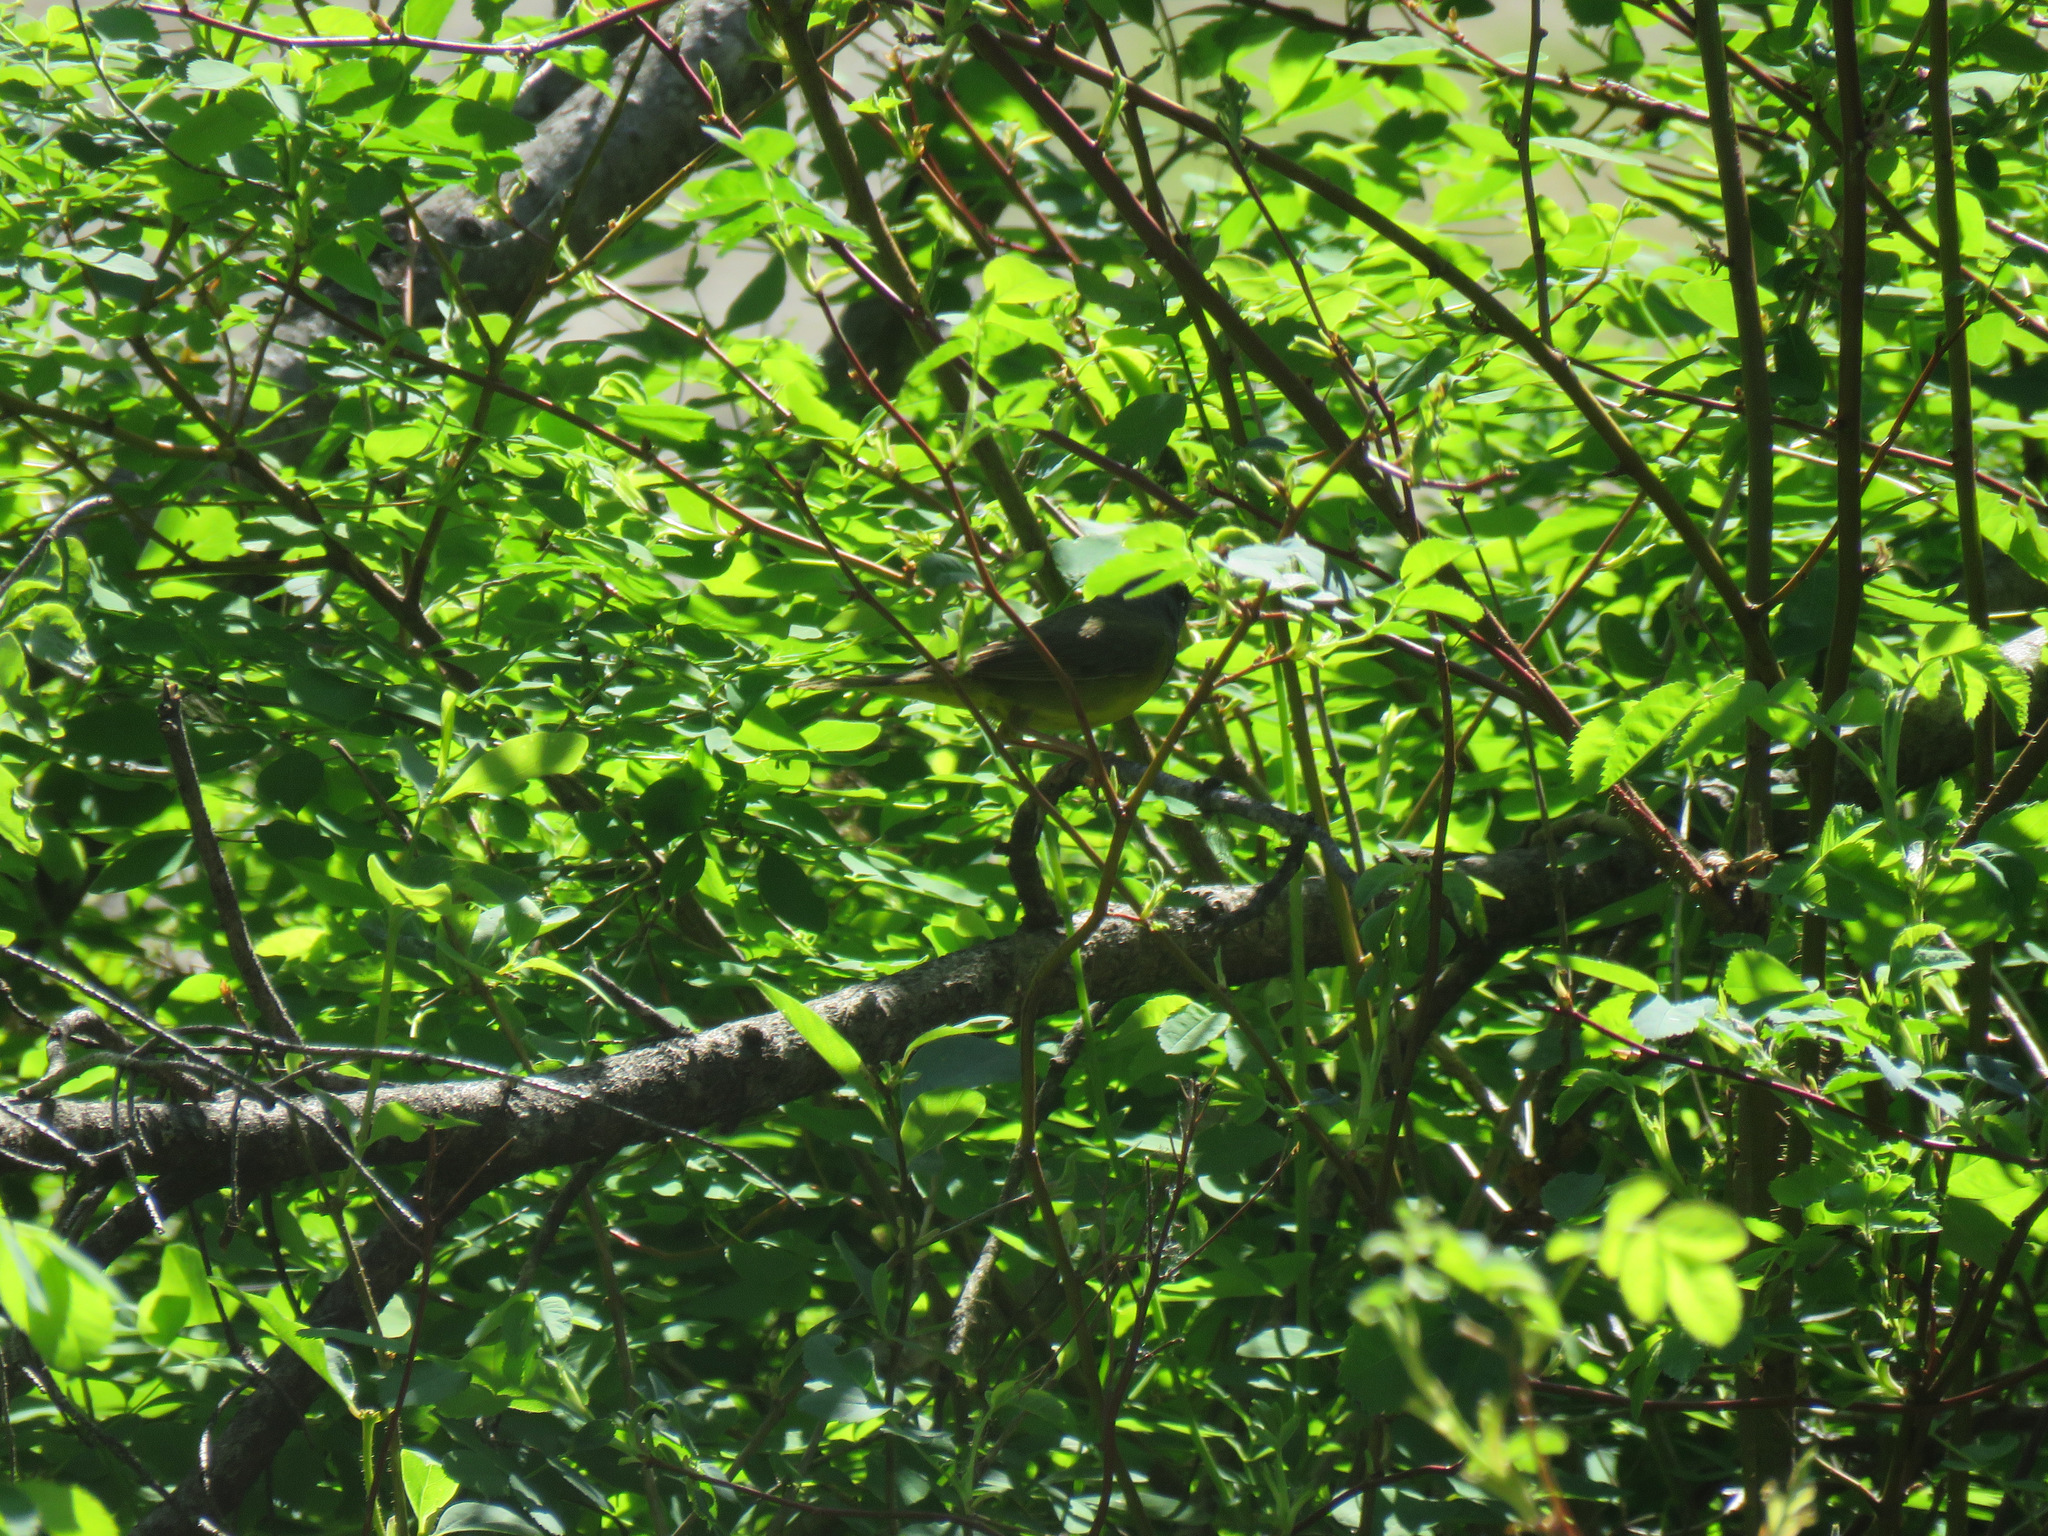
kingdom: Animalia
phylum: Chordata
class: Aves
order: Passeriformes
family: Parulidae
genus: Geothlypis
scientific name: Geothlypis tolmiei
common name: Macgillivray's warbler
